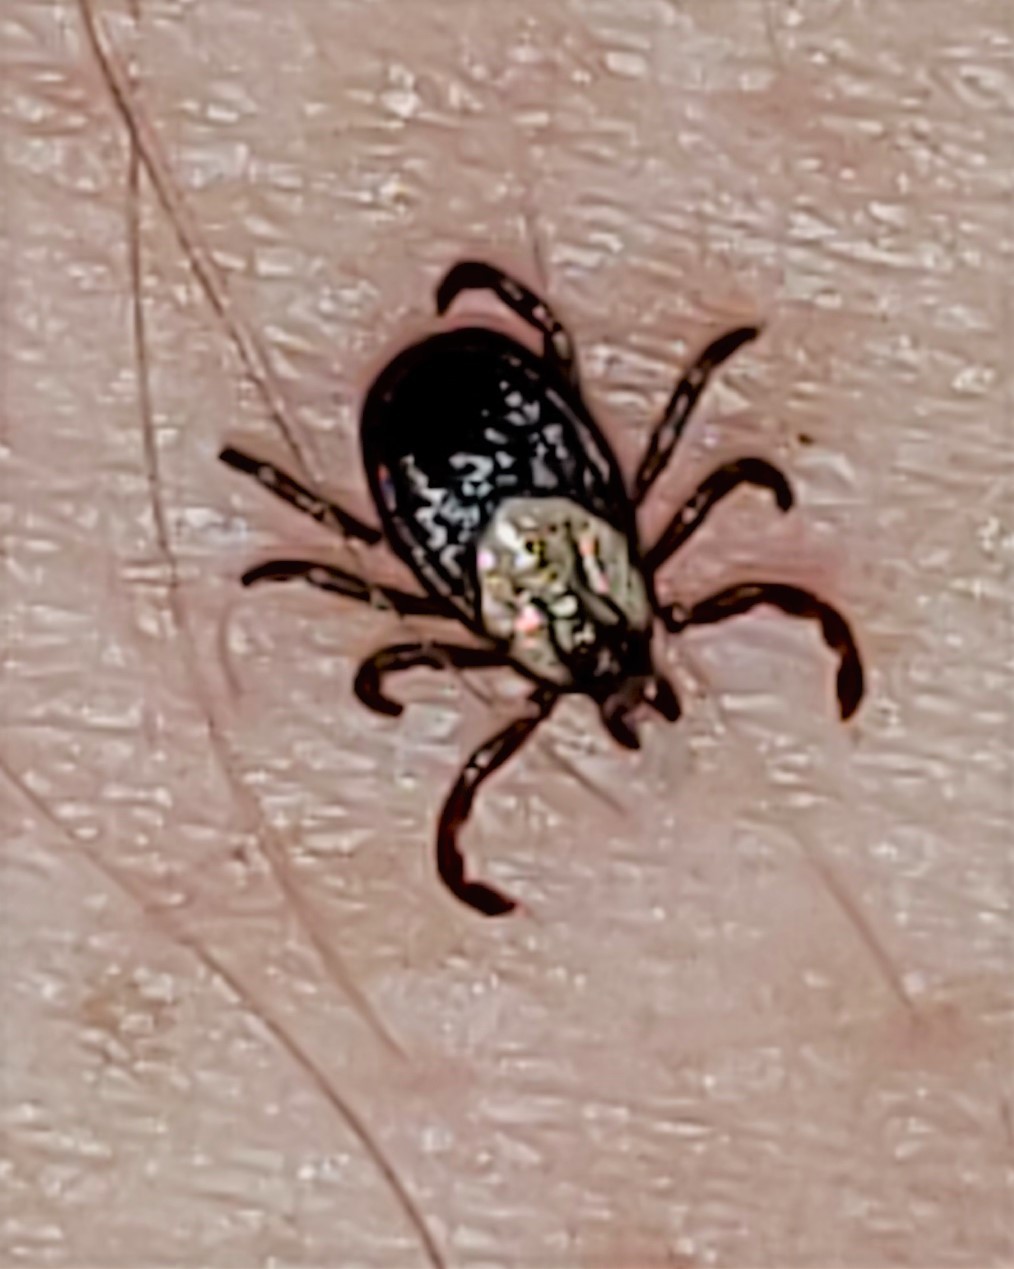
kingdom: Animalia
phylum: Arthropoda
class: Arachnida
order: Ixodida
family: Ixodidae
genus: Dermacentor
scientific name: Dermacentor variabilis
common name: American dog tick
